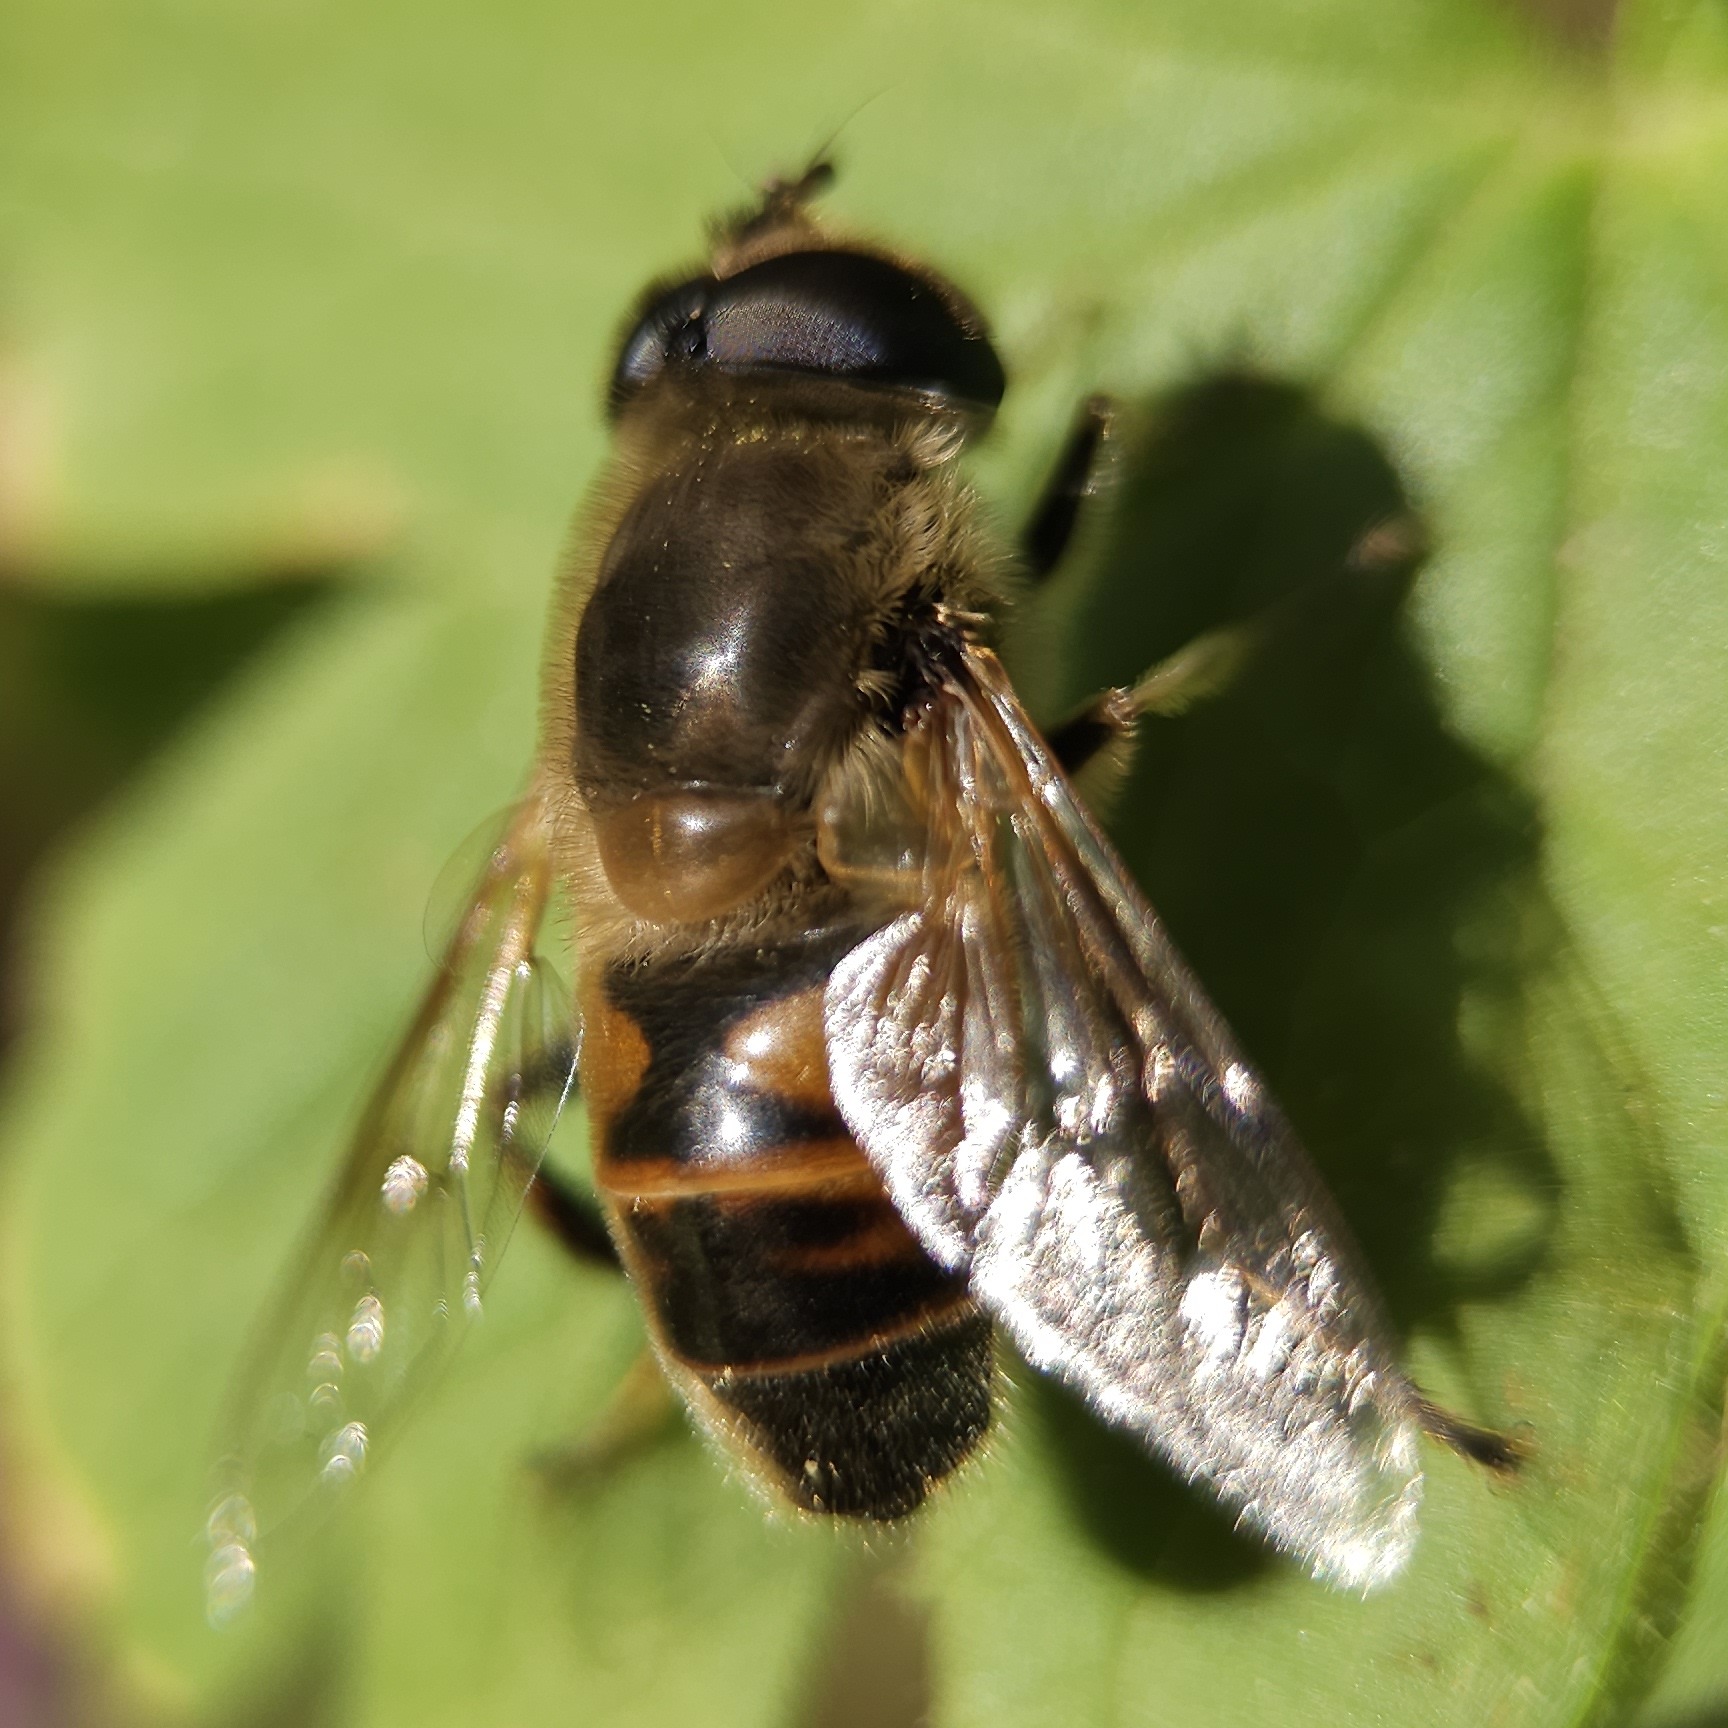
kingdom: Animalia
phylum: Arthropoda
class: Insecta
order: Diptera
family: Syrphidae
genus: Eristalis
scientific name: Eristalis tenax
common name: Drone fly
